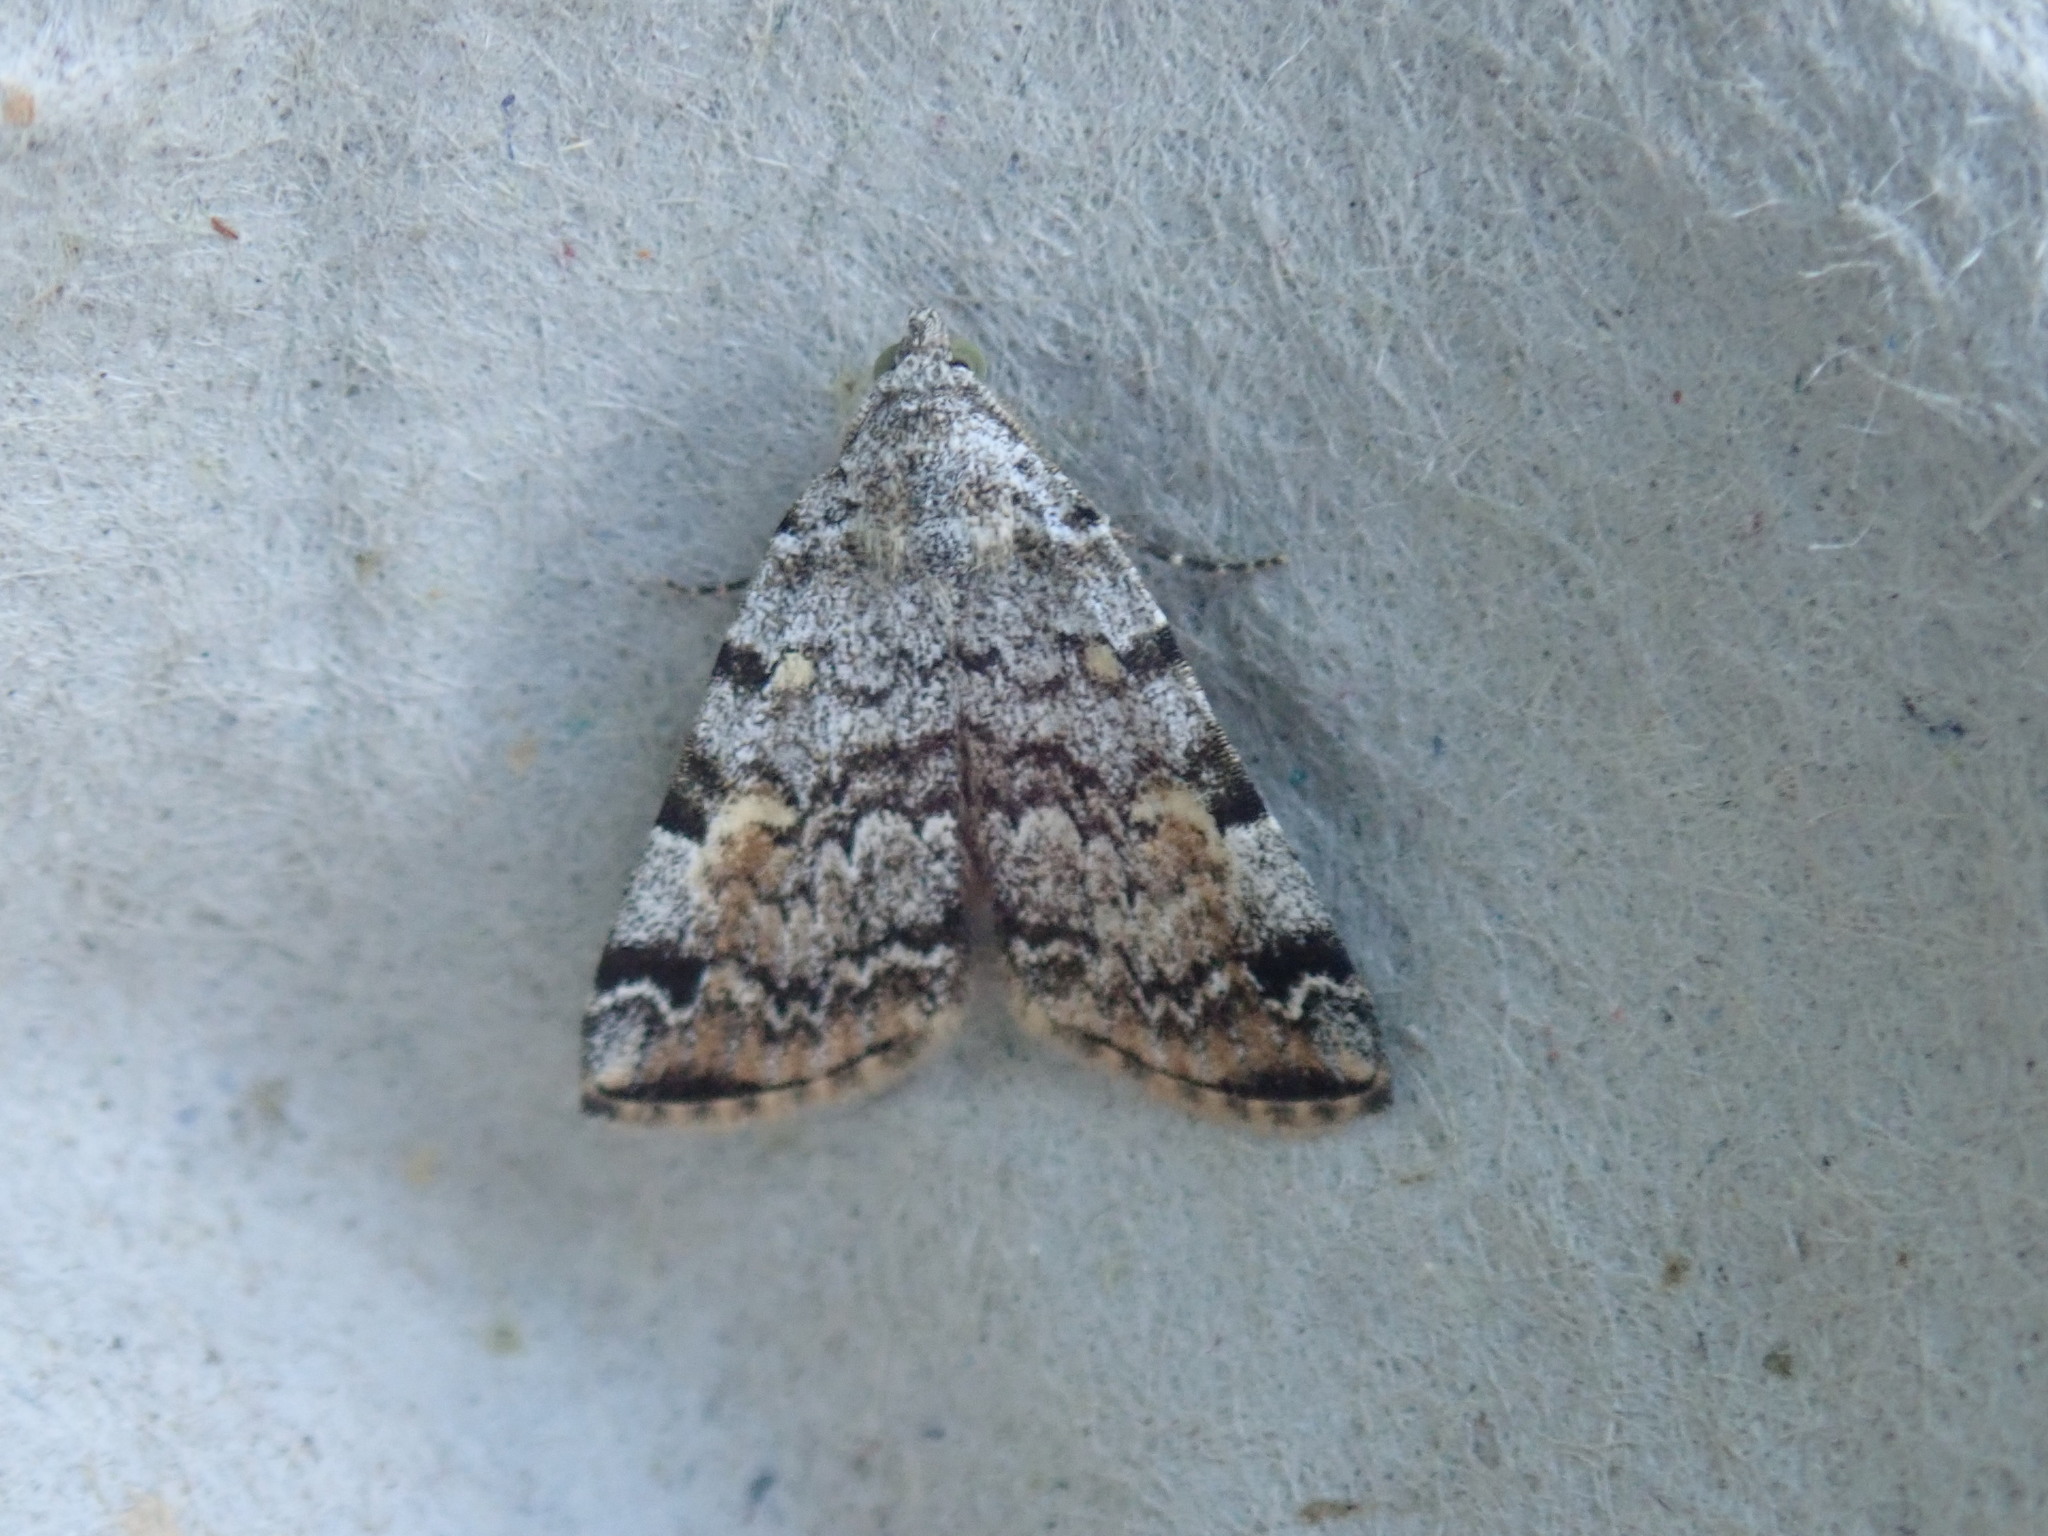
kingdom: Animalia
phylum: Arthropoda
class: Insecta
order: Lepidoptera
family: Erebidae
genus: Idia
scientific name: Idia americalis
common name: American idia moth
